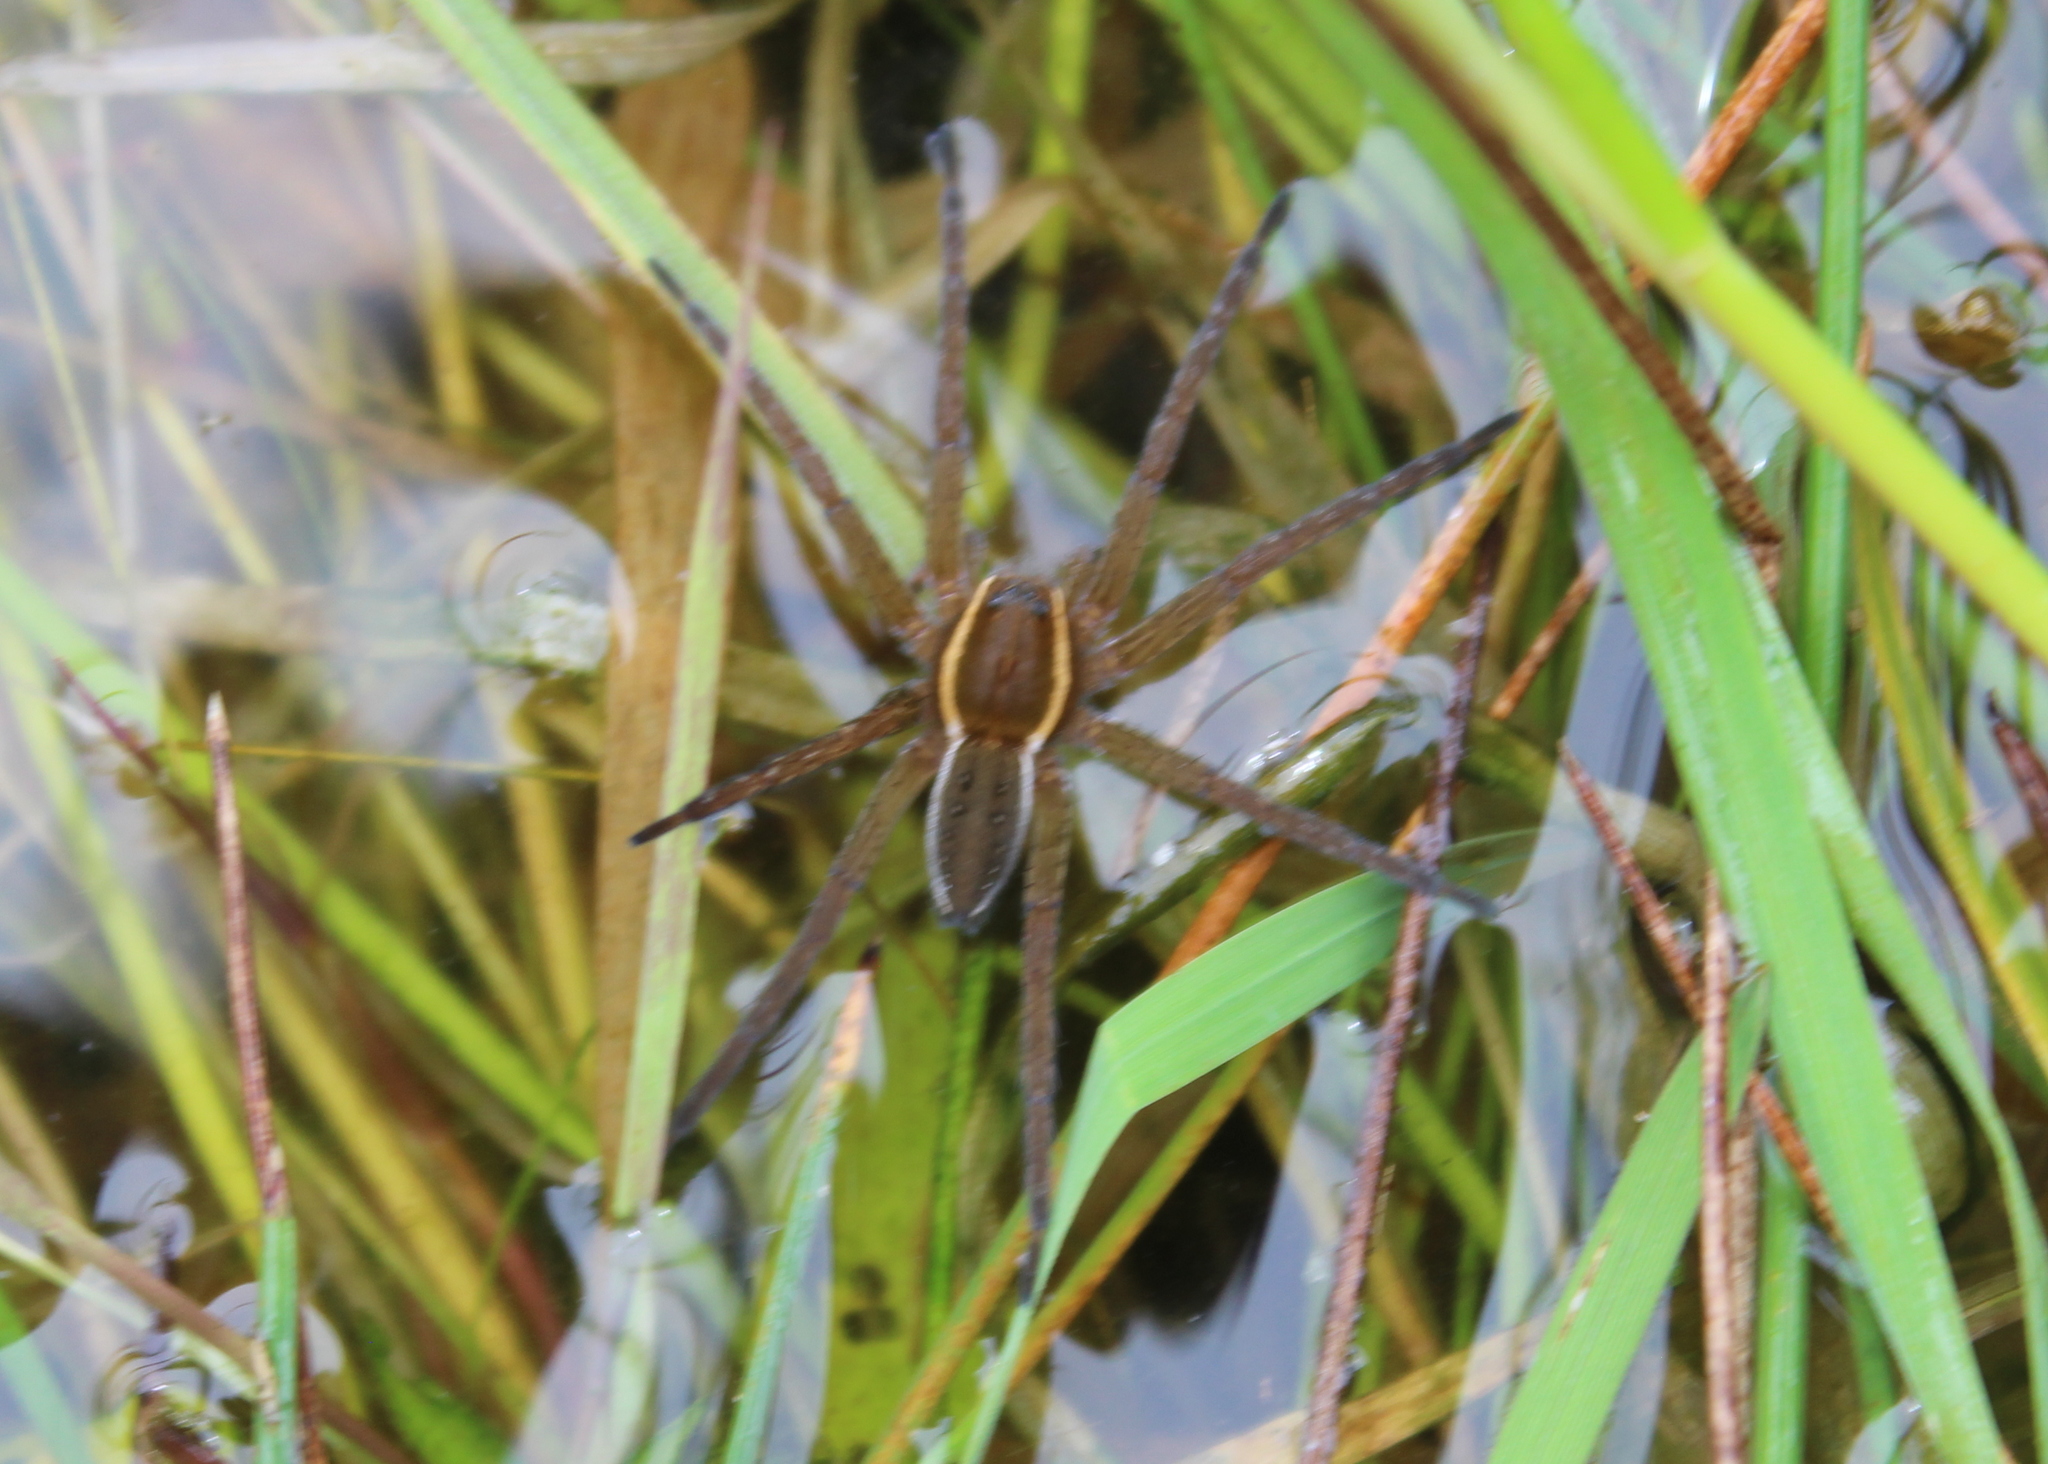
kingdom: Animalia
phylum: Arthropoda
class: Arachnida
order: Araneae
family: Pisauridae
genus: Dolomedes
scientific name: Dolomedes triton
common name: Six-spotted fishing spider
